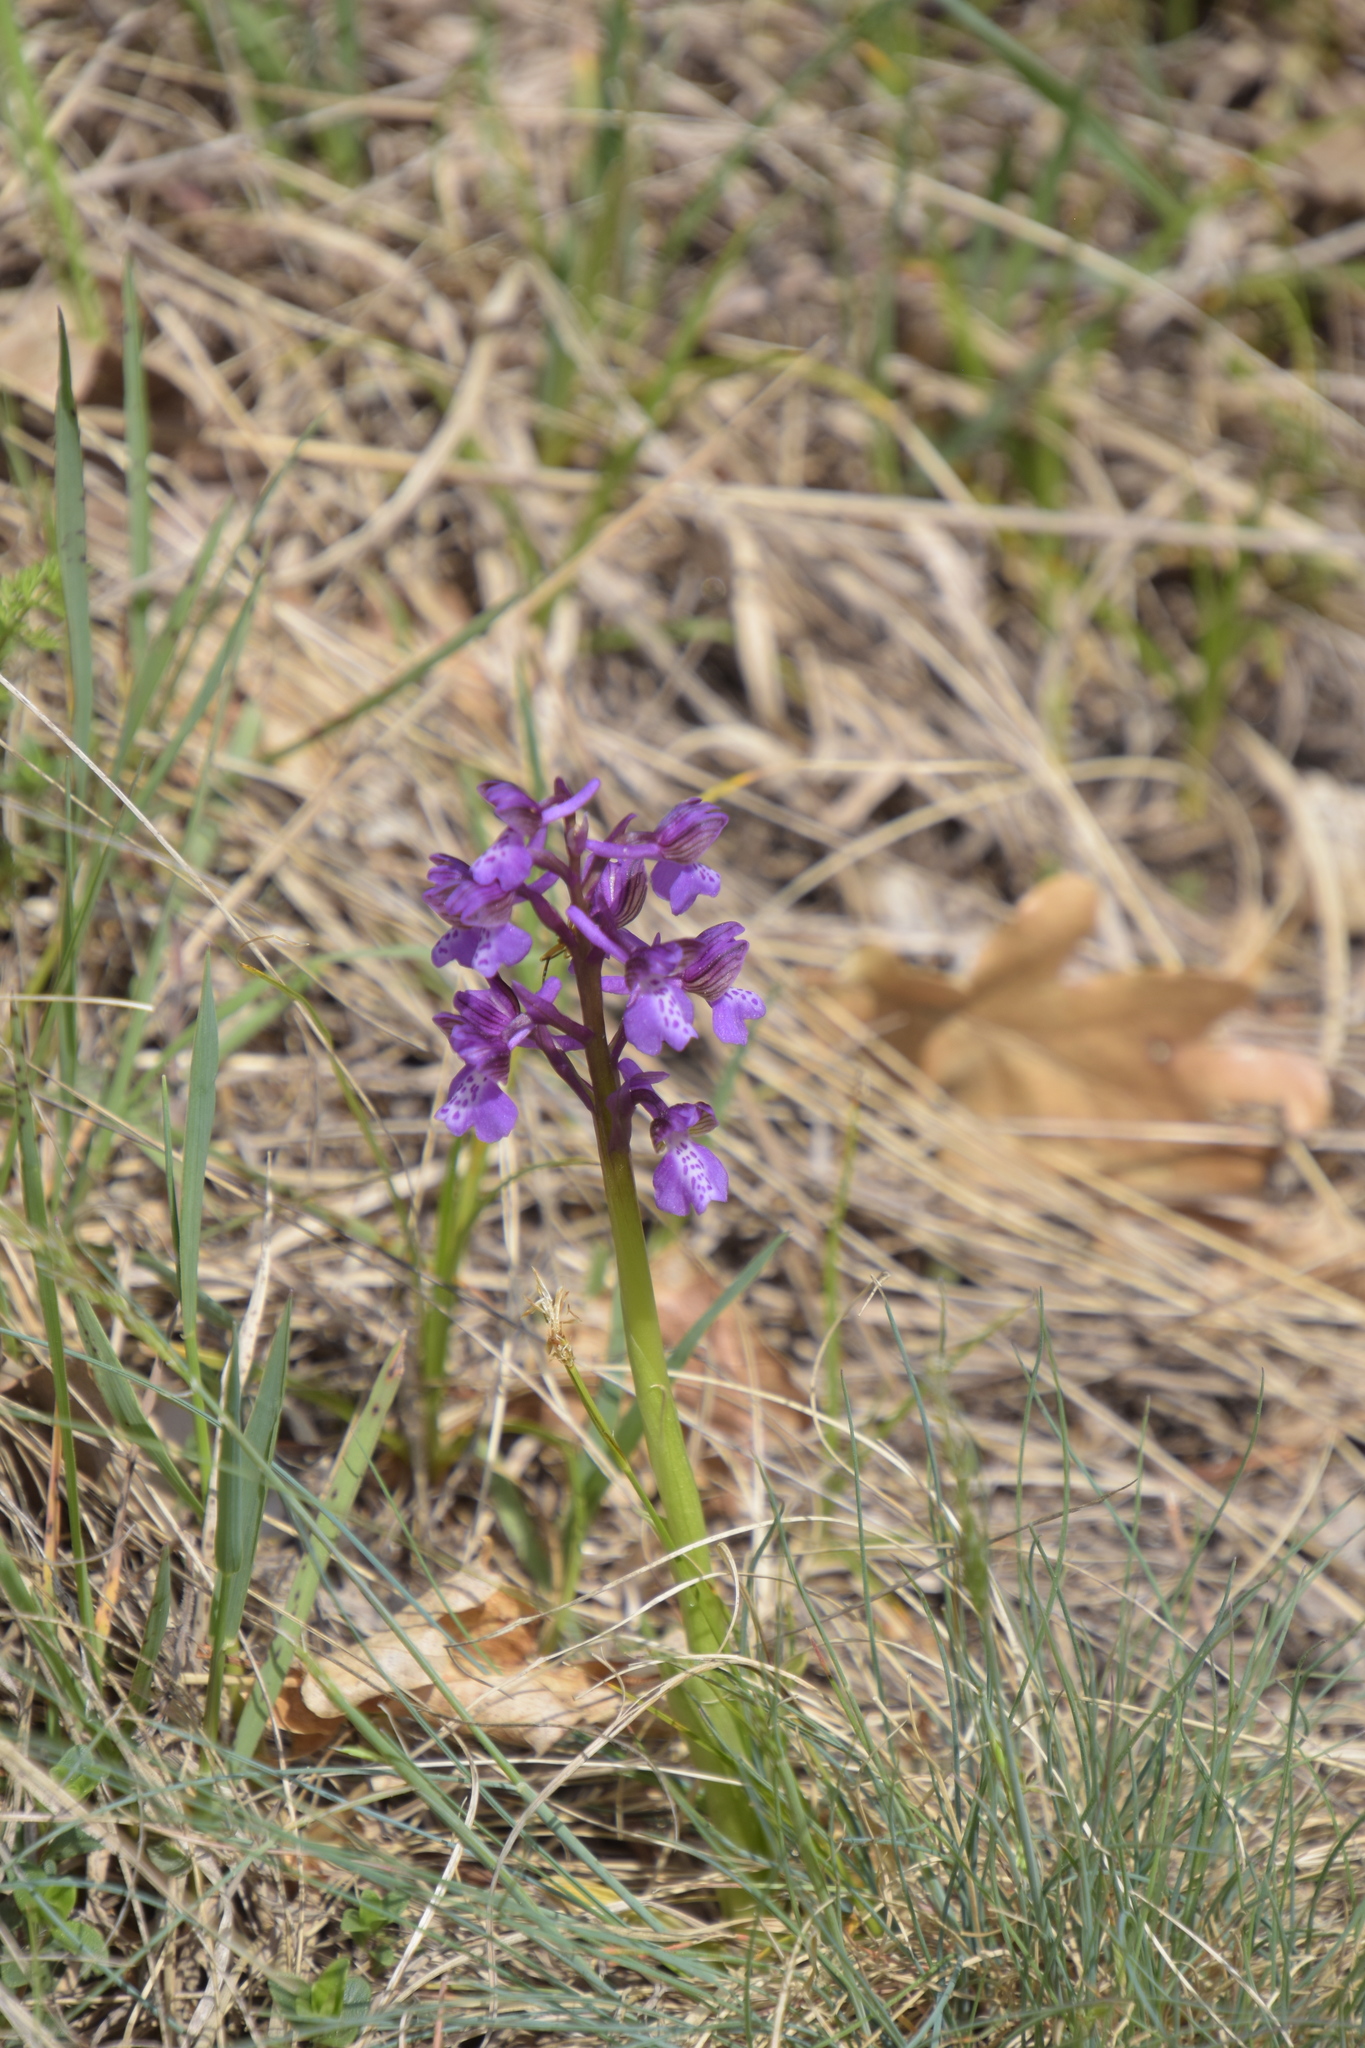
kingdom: Plantae
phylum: Tracheophyta
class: Liliopsida
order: Asparagales
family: Orchidaceae
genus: Anacamptis
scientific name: Anacamptis morio
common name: Green-winged orchid
